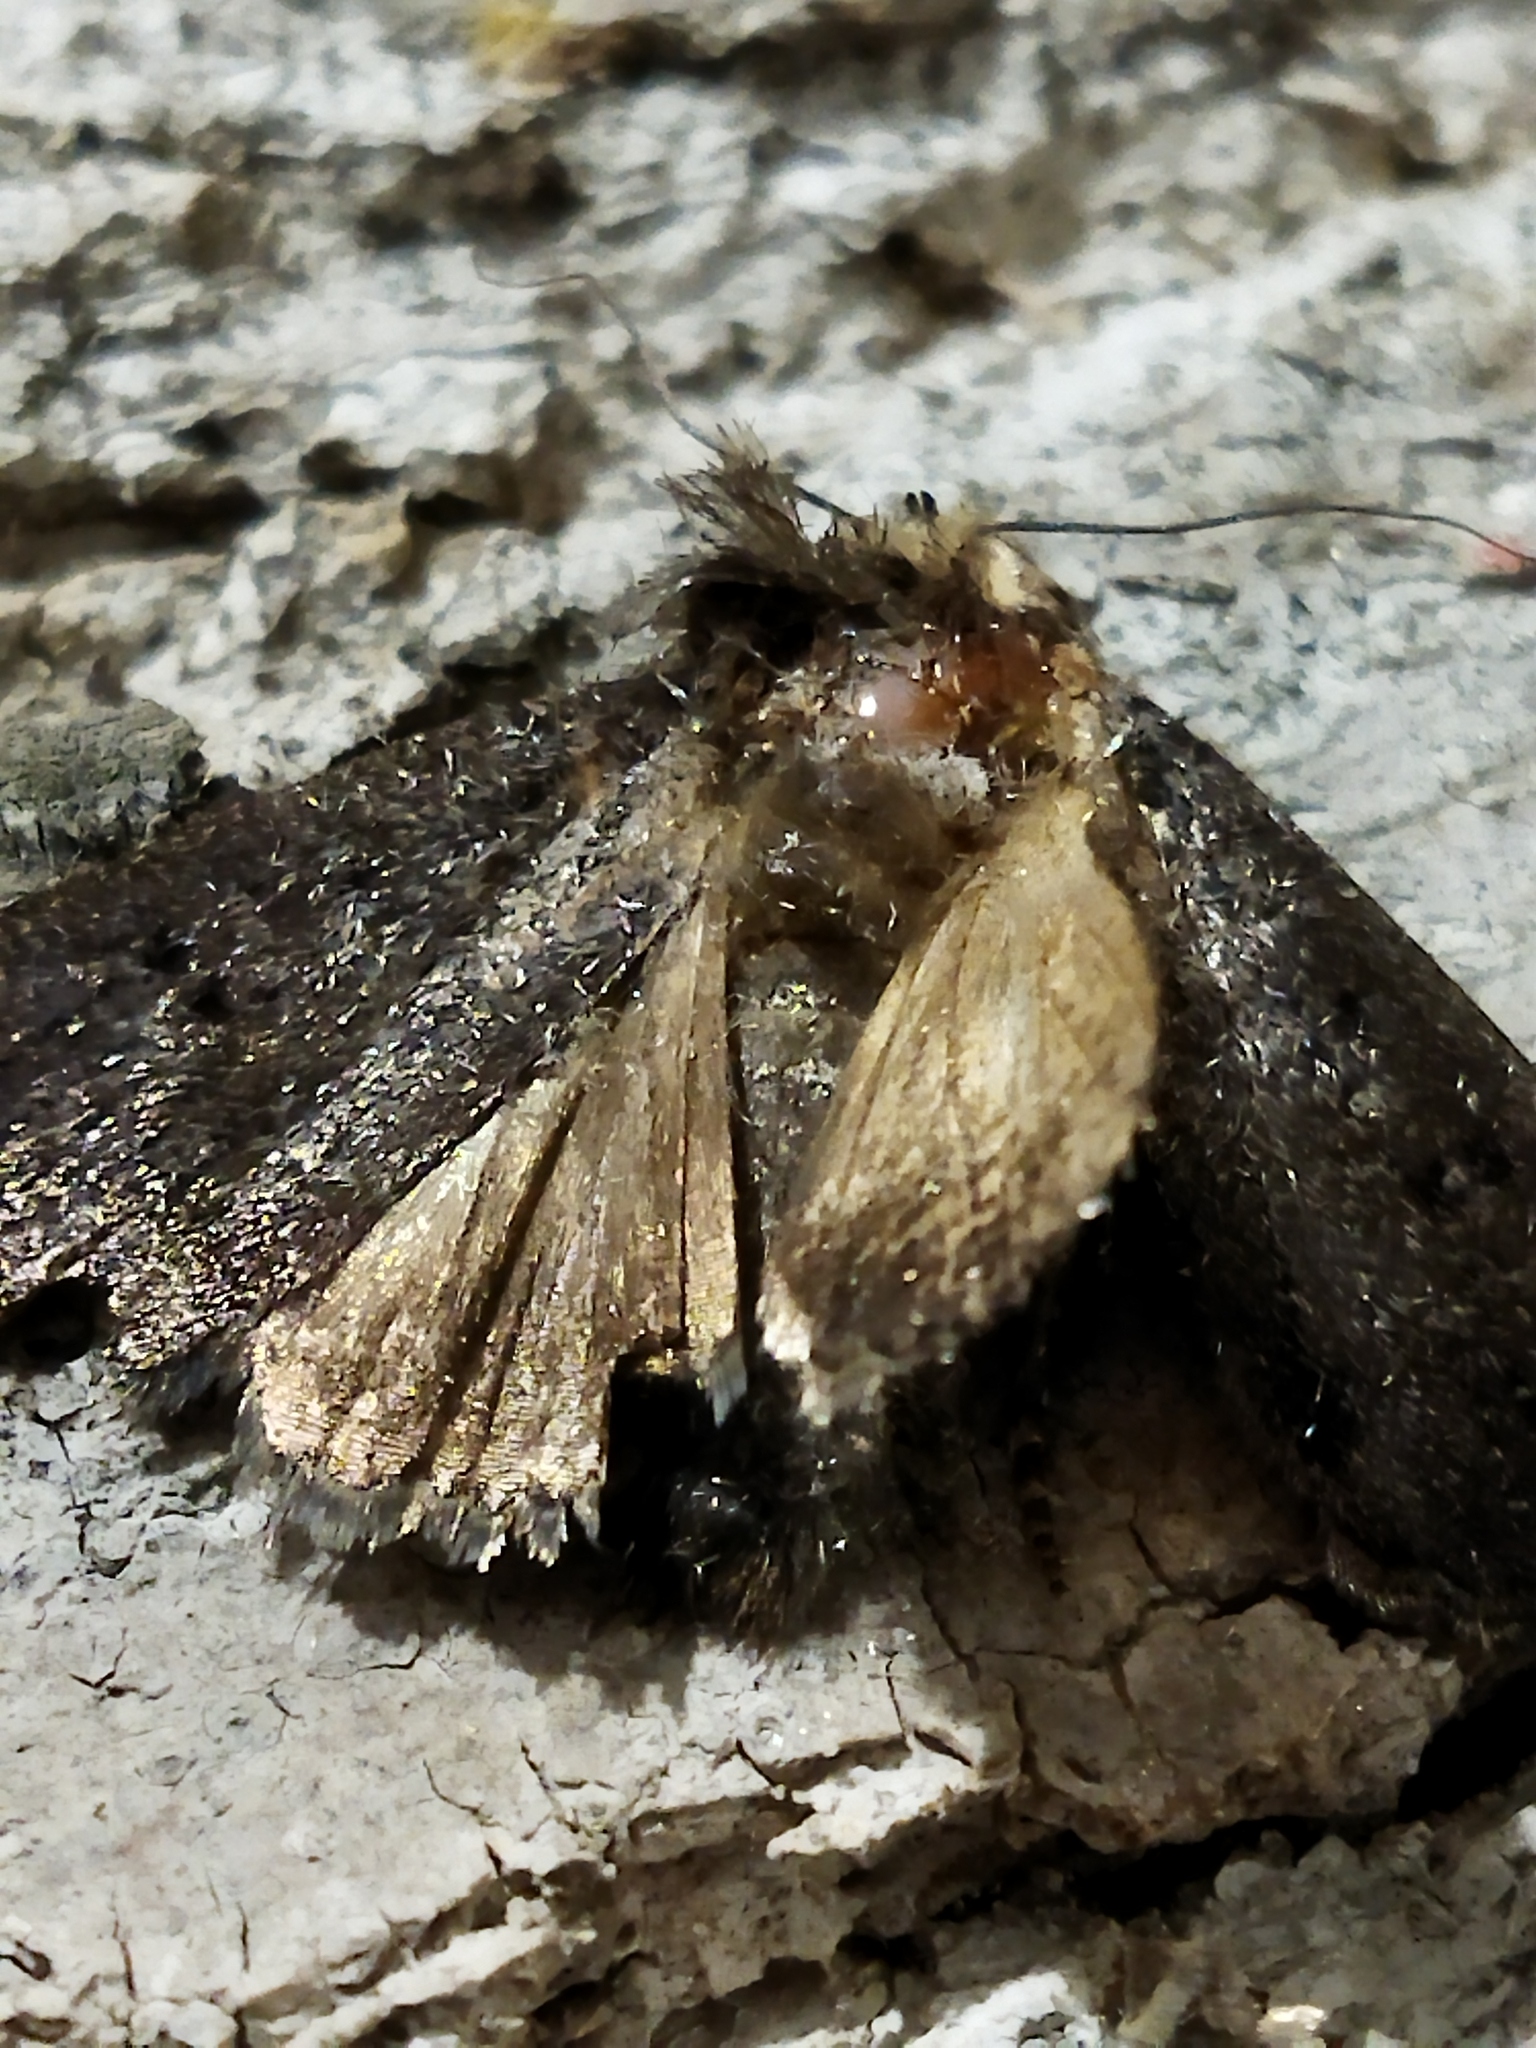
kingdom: Animalia
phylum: Arthropoda
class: Insecta
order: Lepidoptera
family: Noctuidae
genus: Amphipyra
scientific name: Amphipyra tragopoginis
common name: Mouse moth
